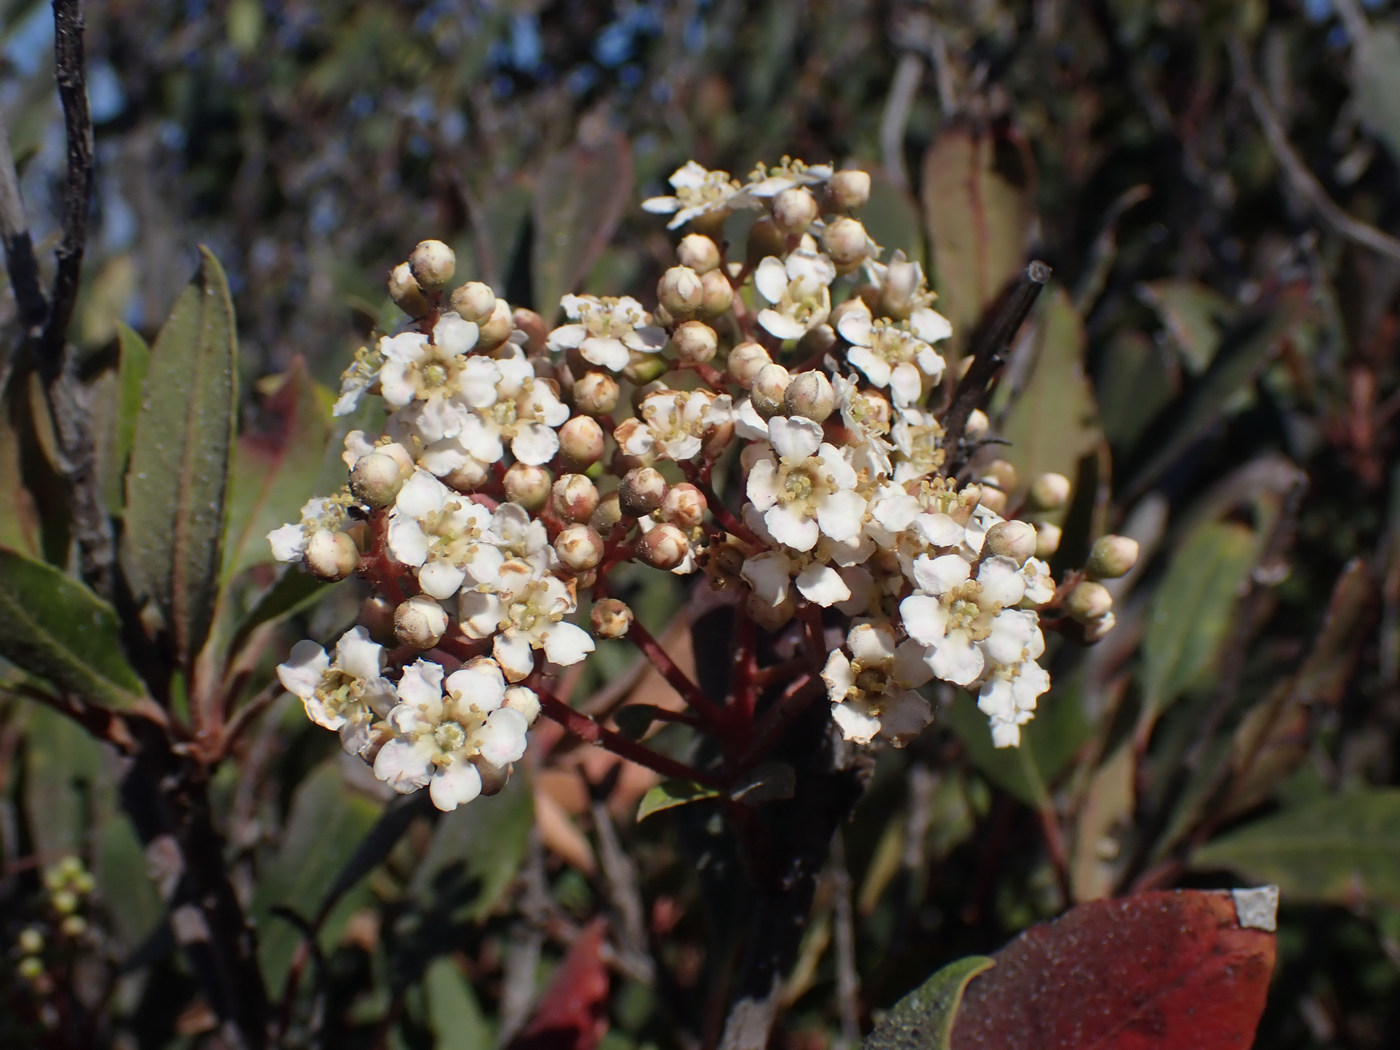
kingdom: Plantae
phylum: Tracheophyta
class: Magnoliopsida
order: Rosales
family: Rosaceae
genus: Heteromeles
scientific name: Heteromeles arbutifolia
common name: California-holly
